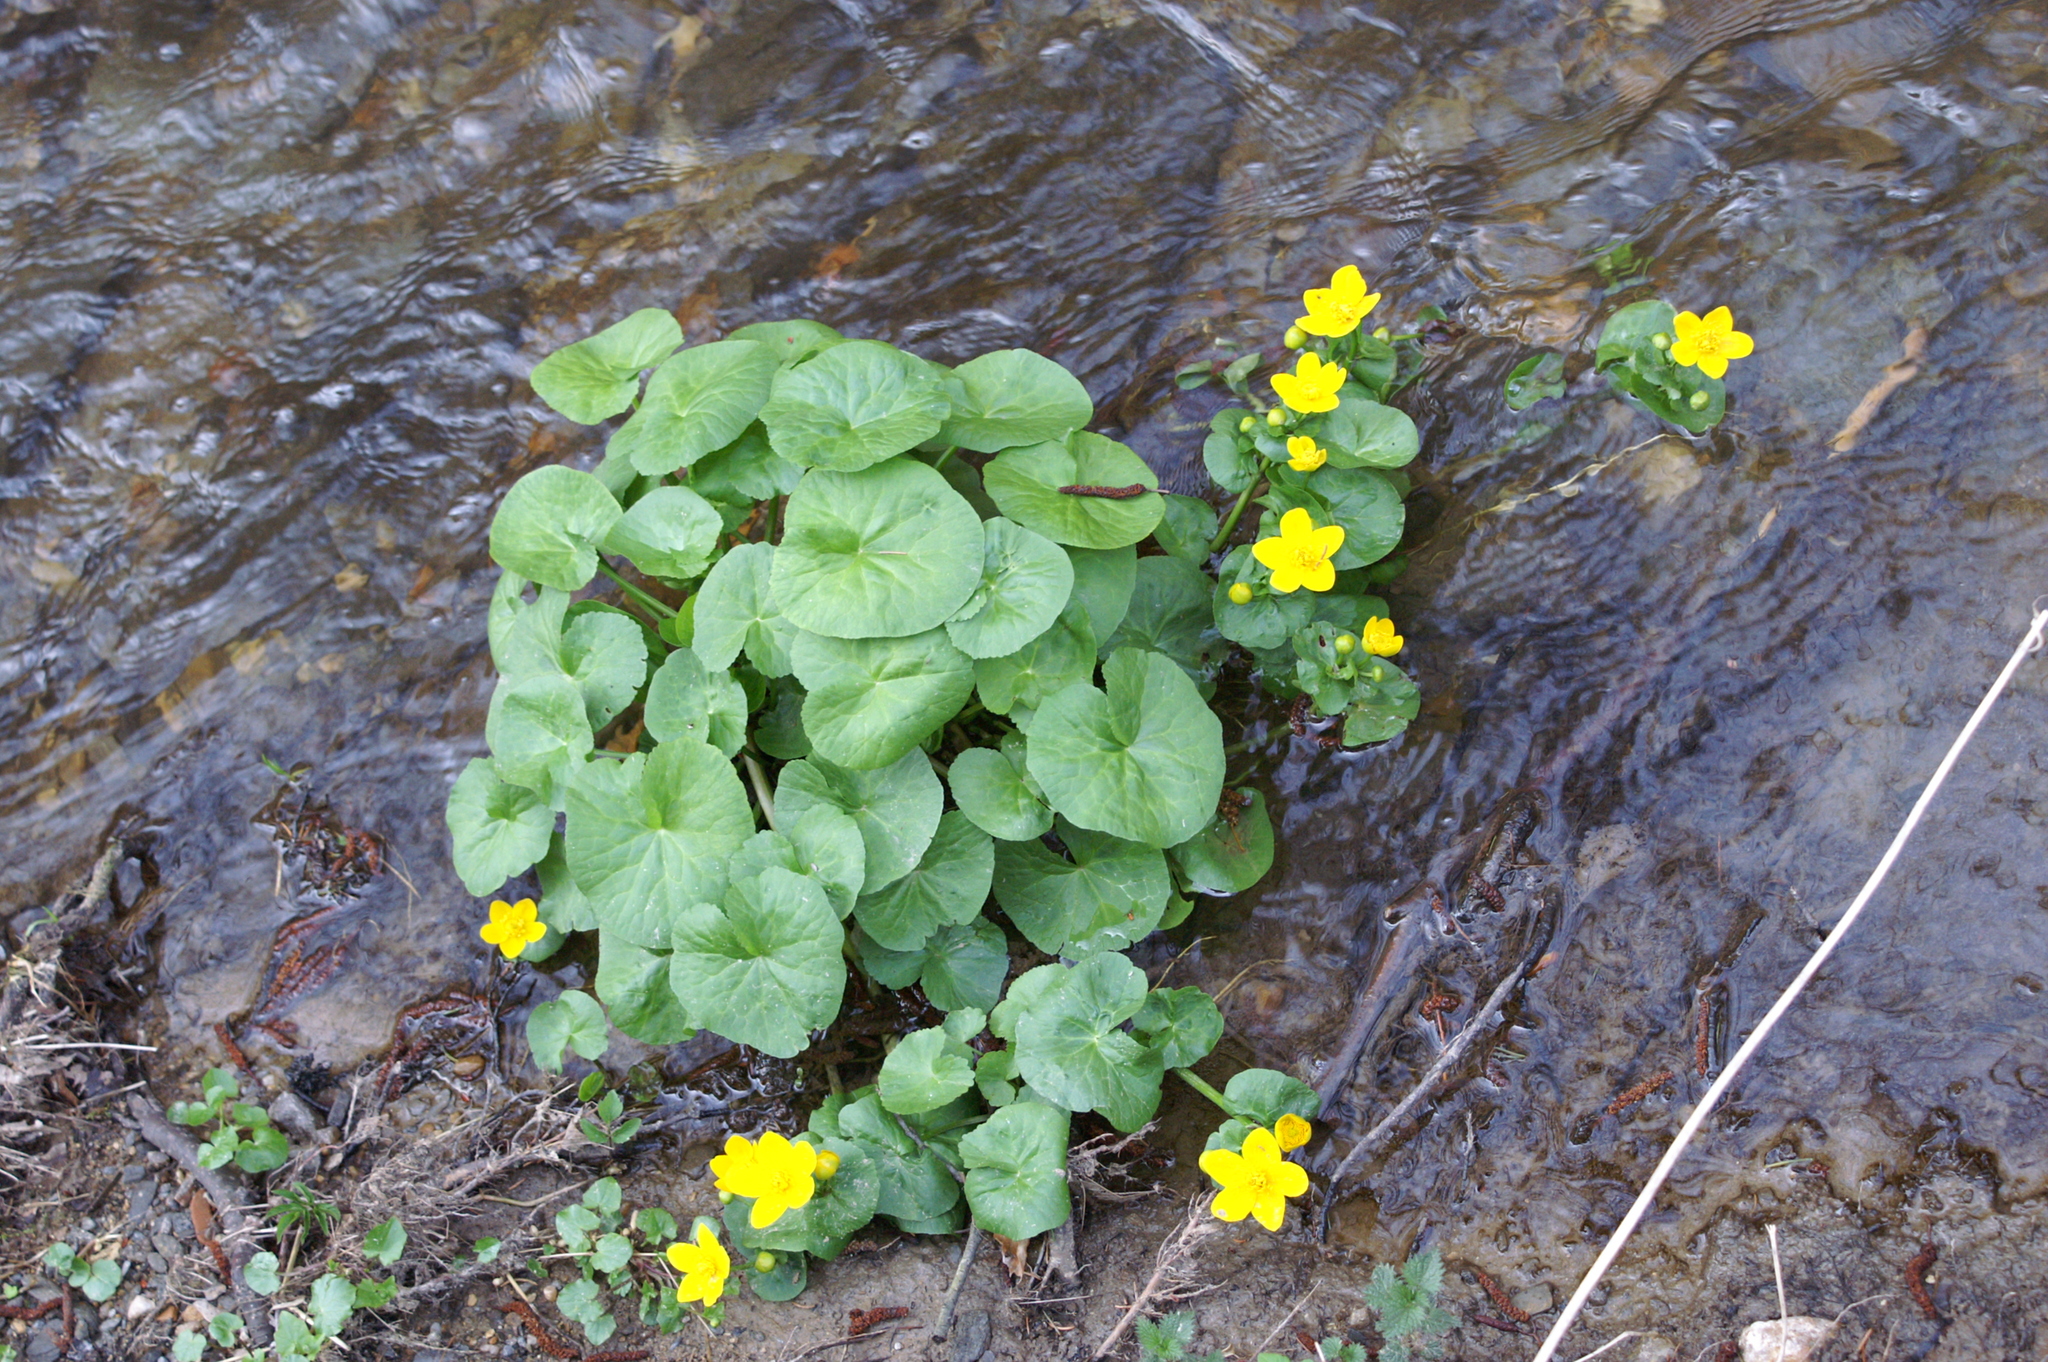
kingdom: Plantae
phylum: Tracheophyta
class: Magnoliopsida
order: Ranunculales
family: Ranunculaceae
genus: Caltha
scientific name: Caltha palustris
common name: Marsh marigold
